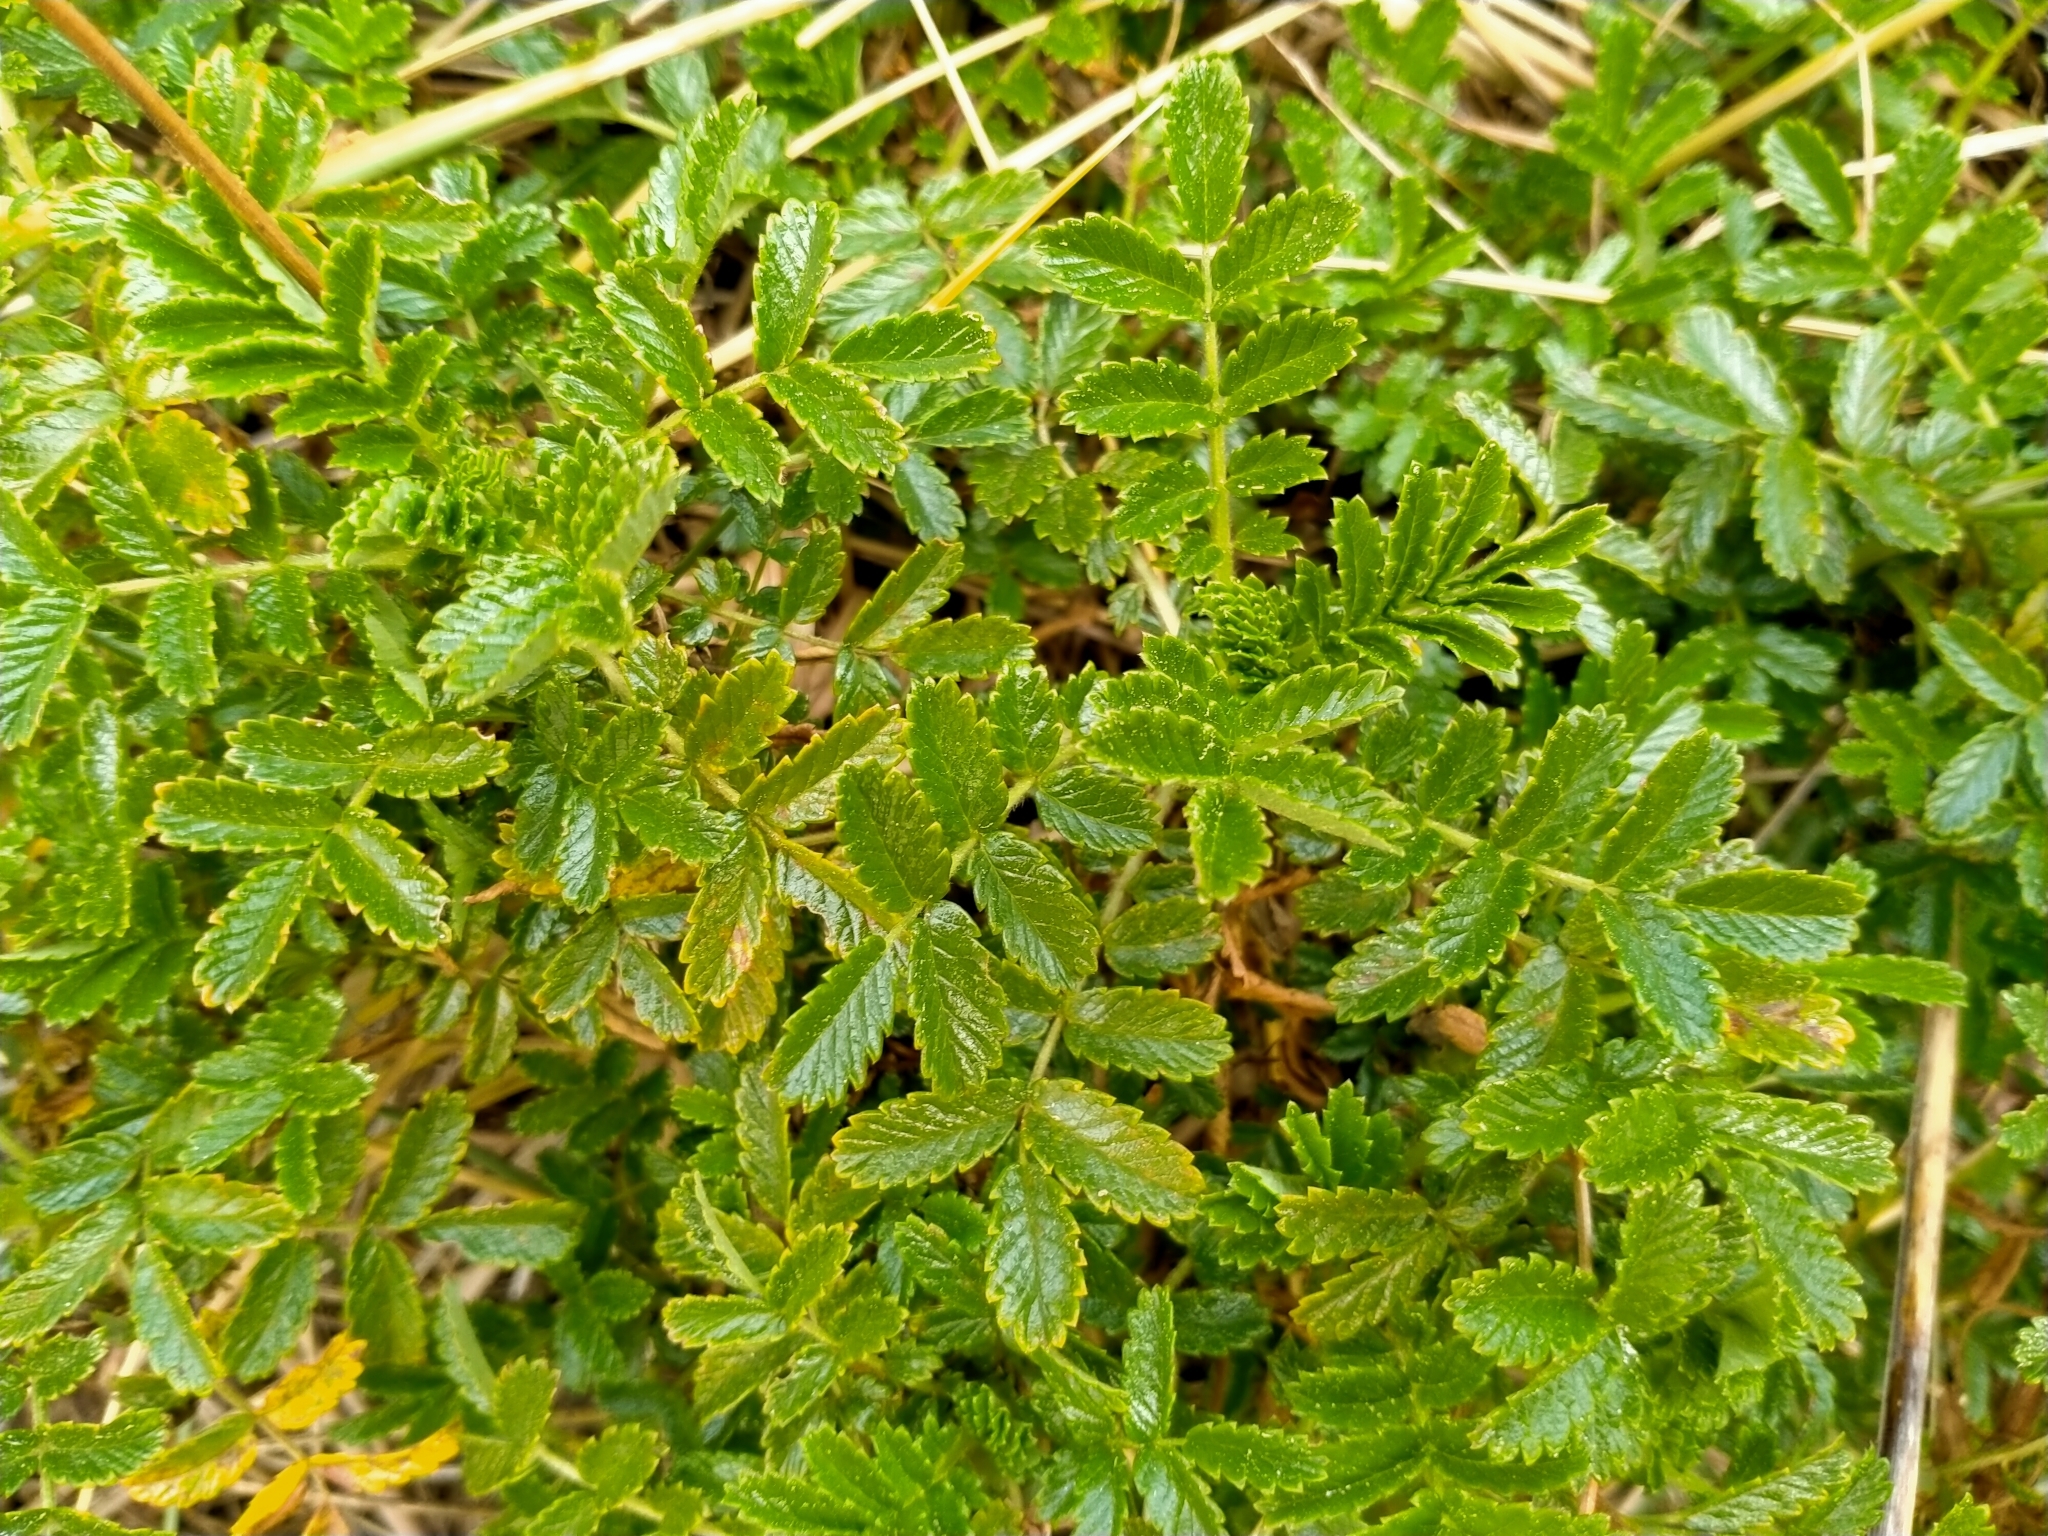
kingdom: Plantae
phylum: Tracheophyta
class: Magnoliopsida
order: Rosales
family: Rosaceae
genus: Acaena
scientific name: Acaena pallida
